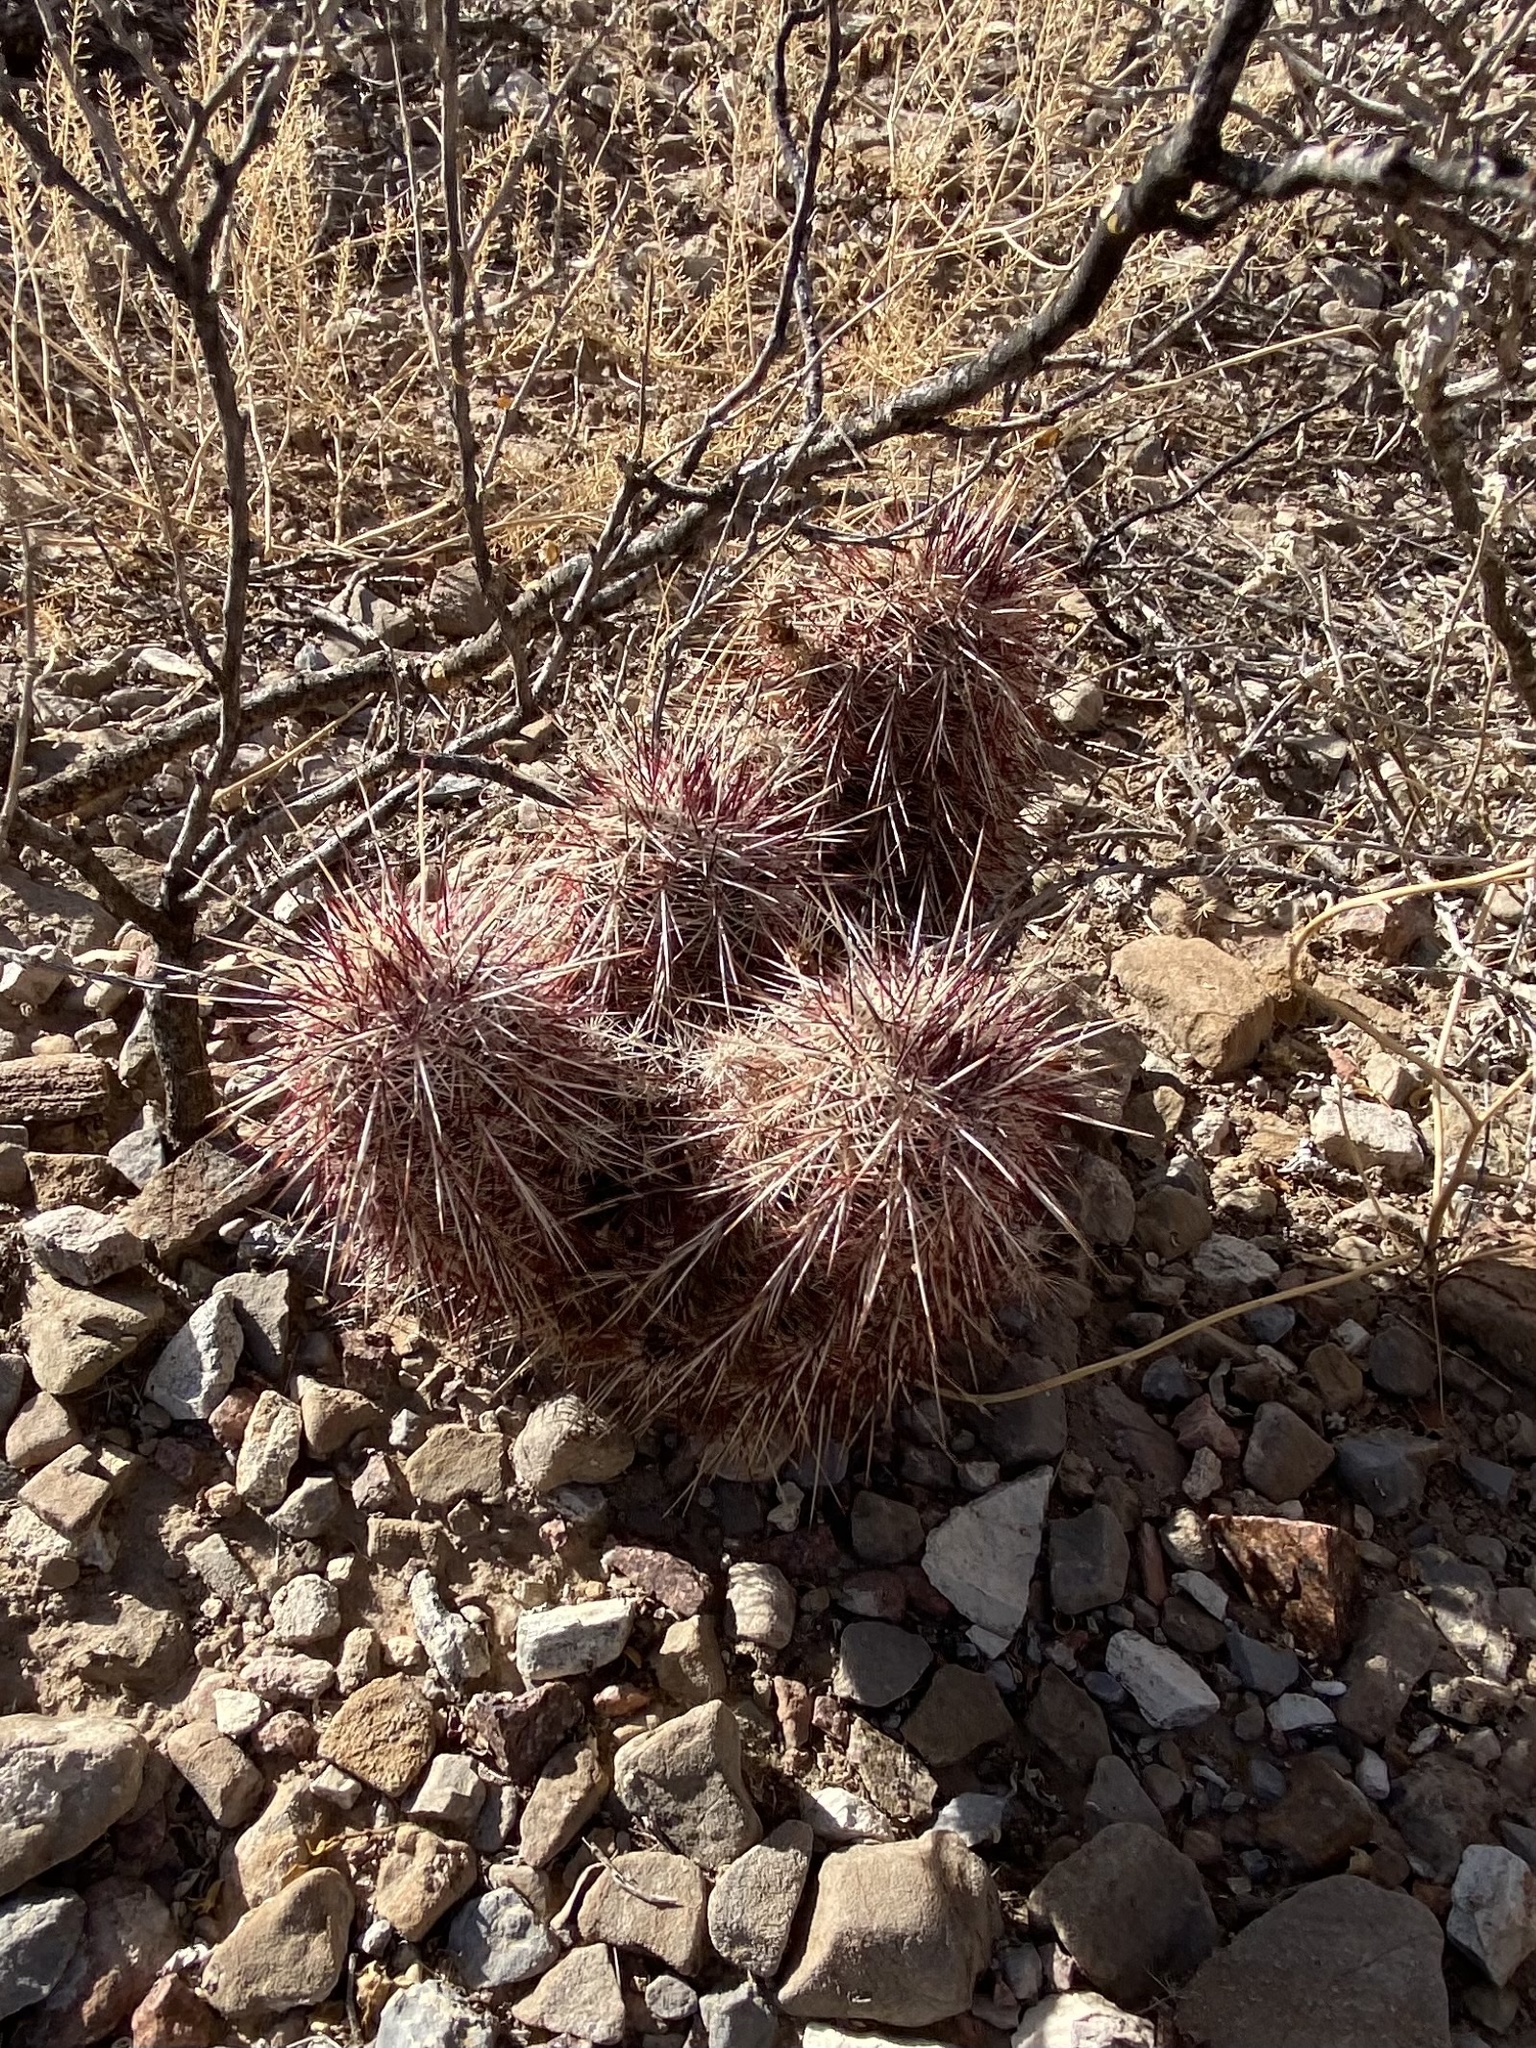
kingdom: Plantae
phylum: Tracheophyta
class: Magnoliopsida
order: Caryophyllales
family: Cactaceae
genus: Echinocereus
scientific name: Echinocereus viridiflorus
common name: Nylon hedgehog cactus
